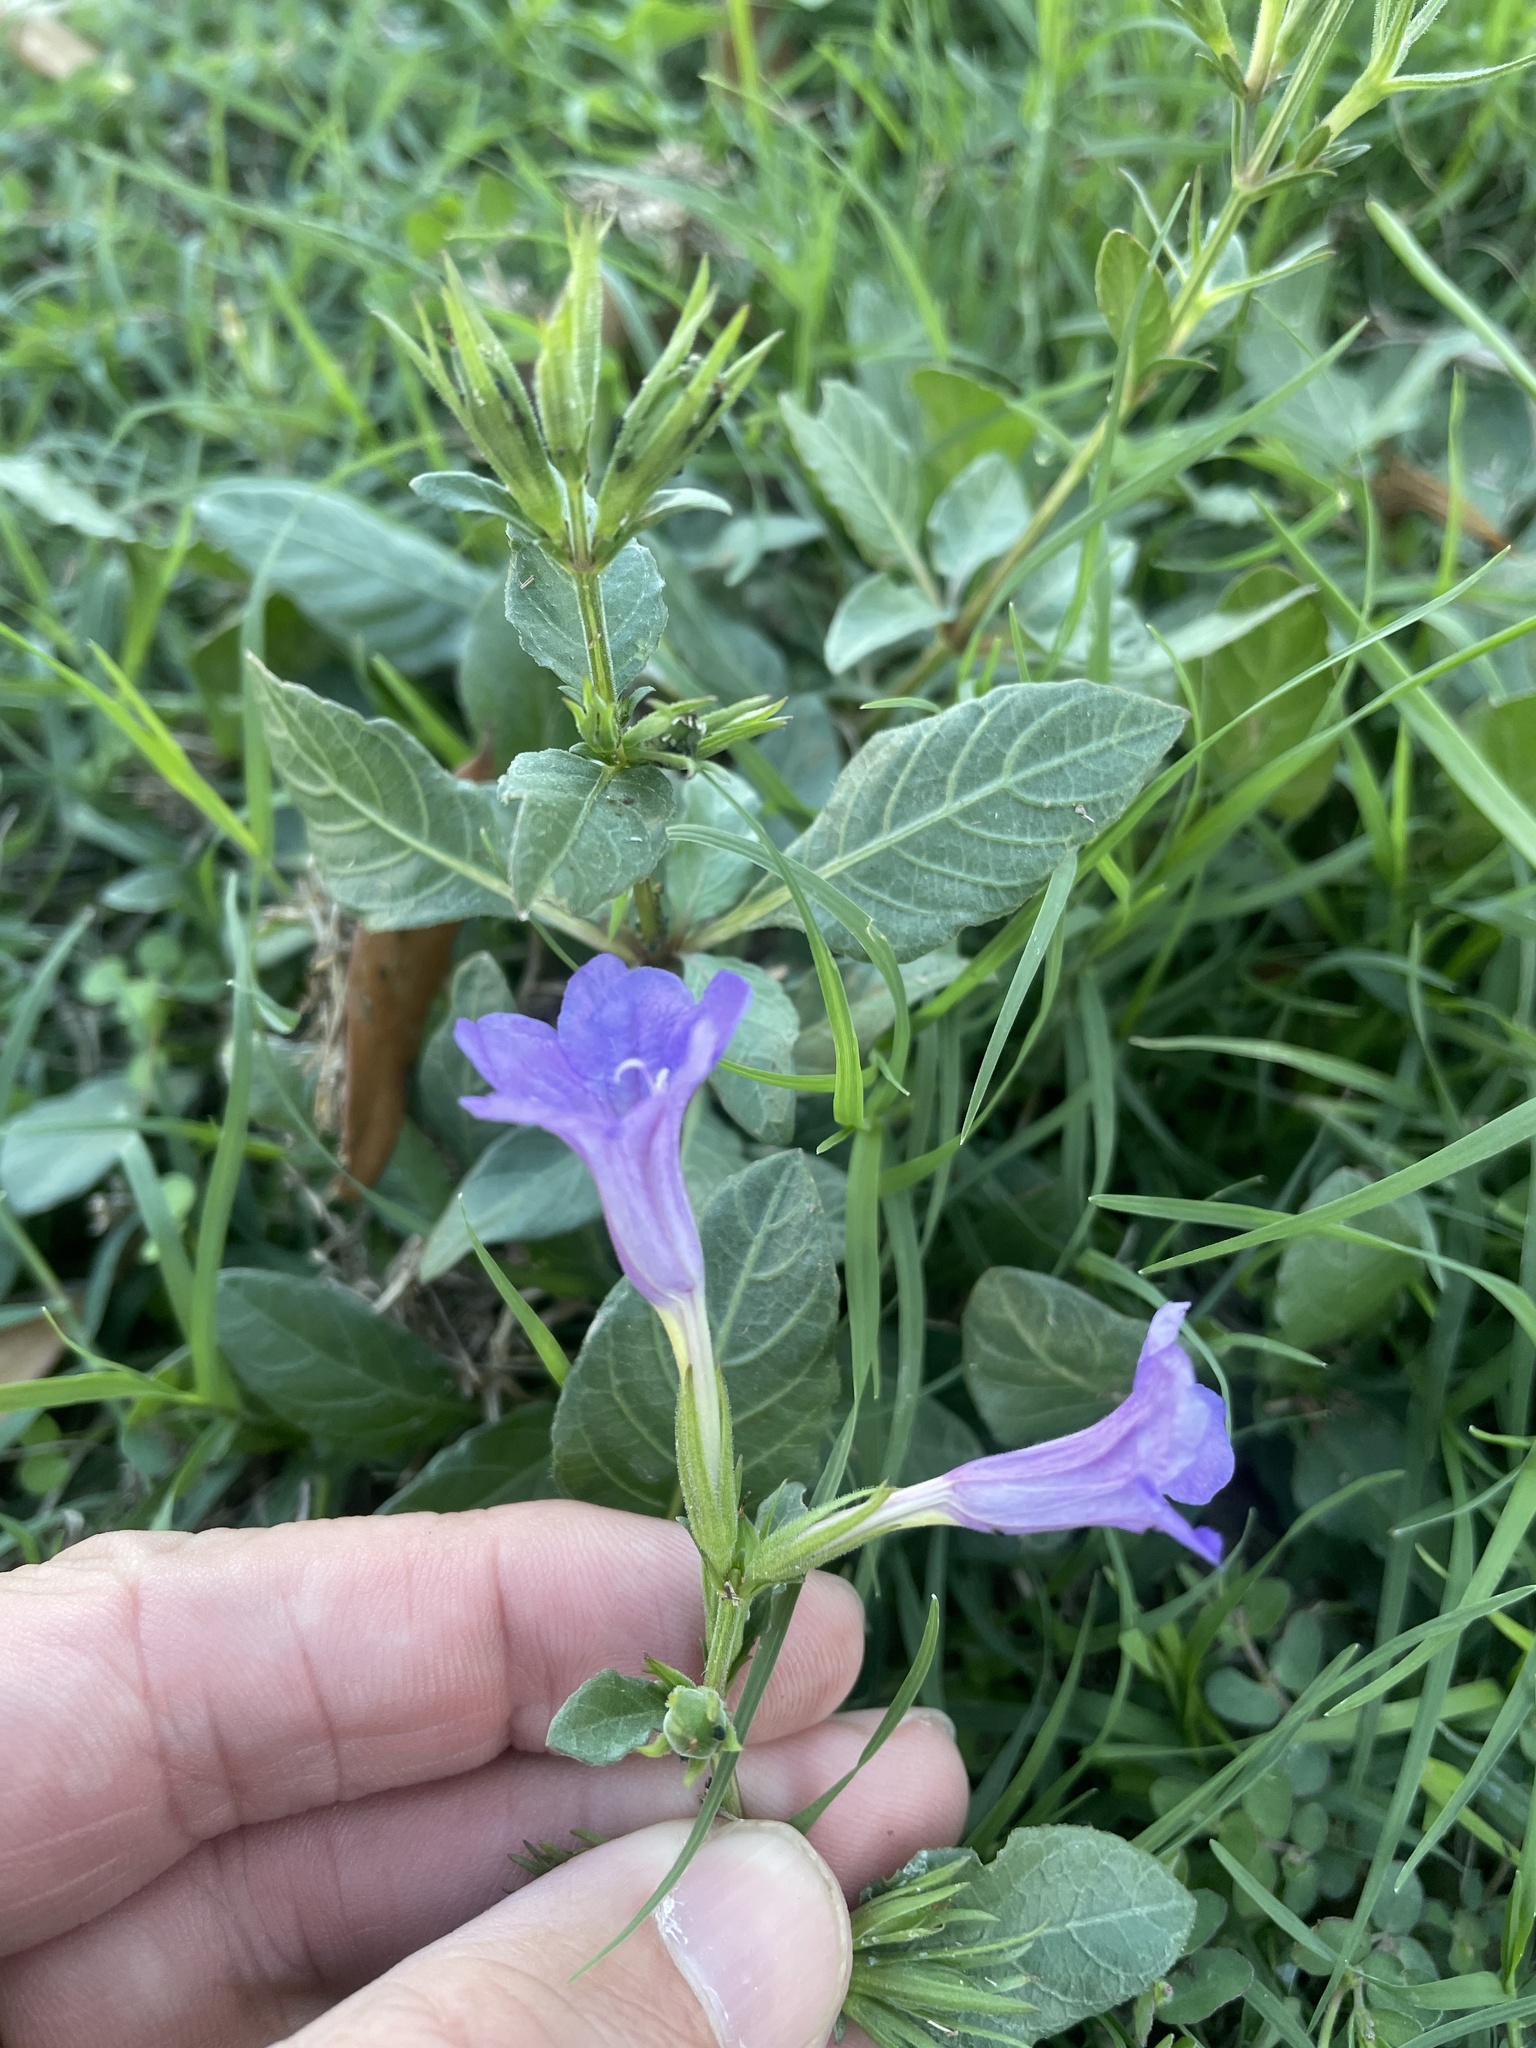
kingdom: Plantae
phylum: Tracheophyta
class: Magnoliopsida
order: Lamiales
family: Acanthaceae
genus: Ruellia
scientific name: Ruellia ciliatiflora
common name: Hairyflower wild petunia
